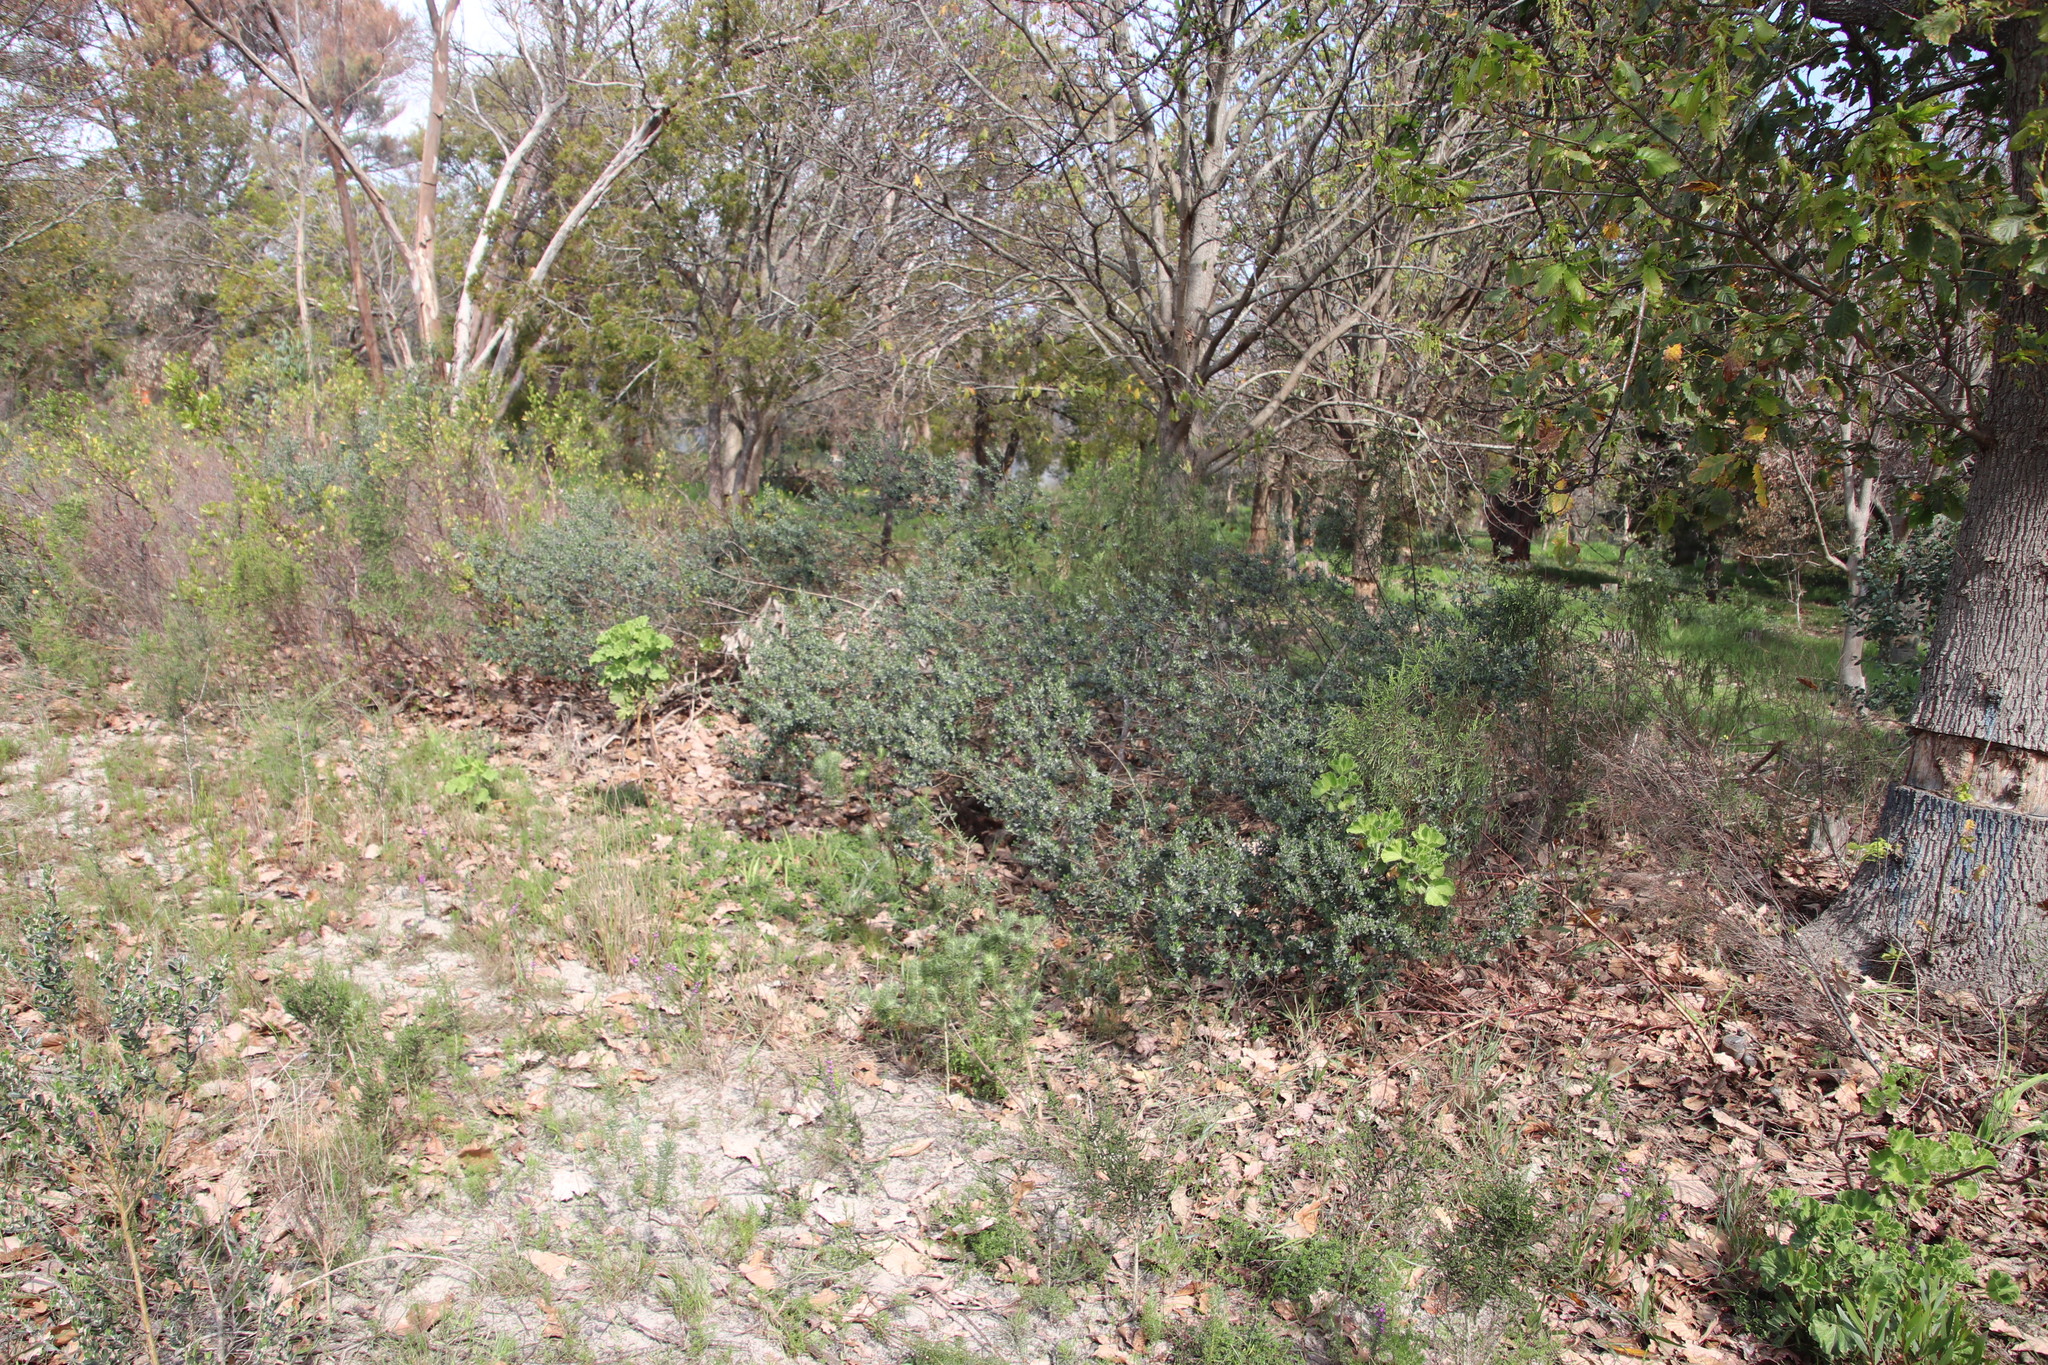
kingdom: Plantae
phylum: Tracheophyta
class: Magnoliopsida
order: Fabales
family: Fabaceae
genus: Podalyria
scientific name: Podalyria myrtillifolia
